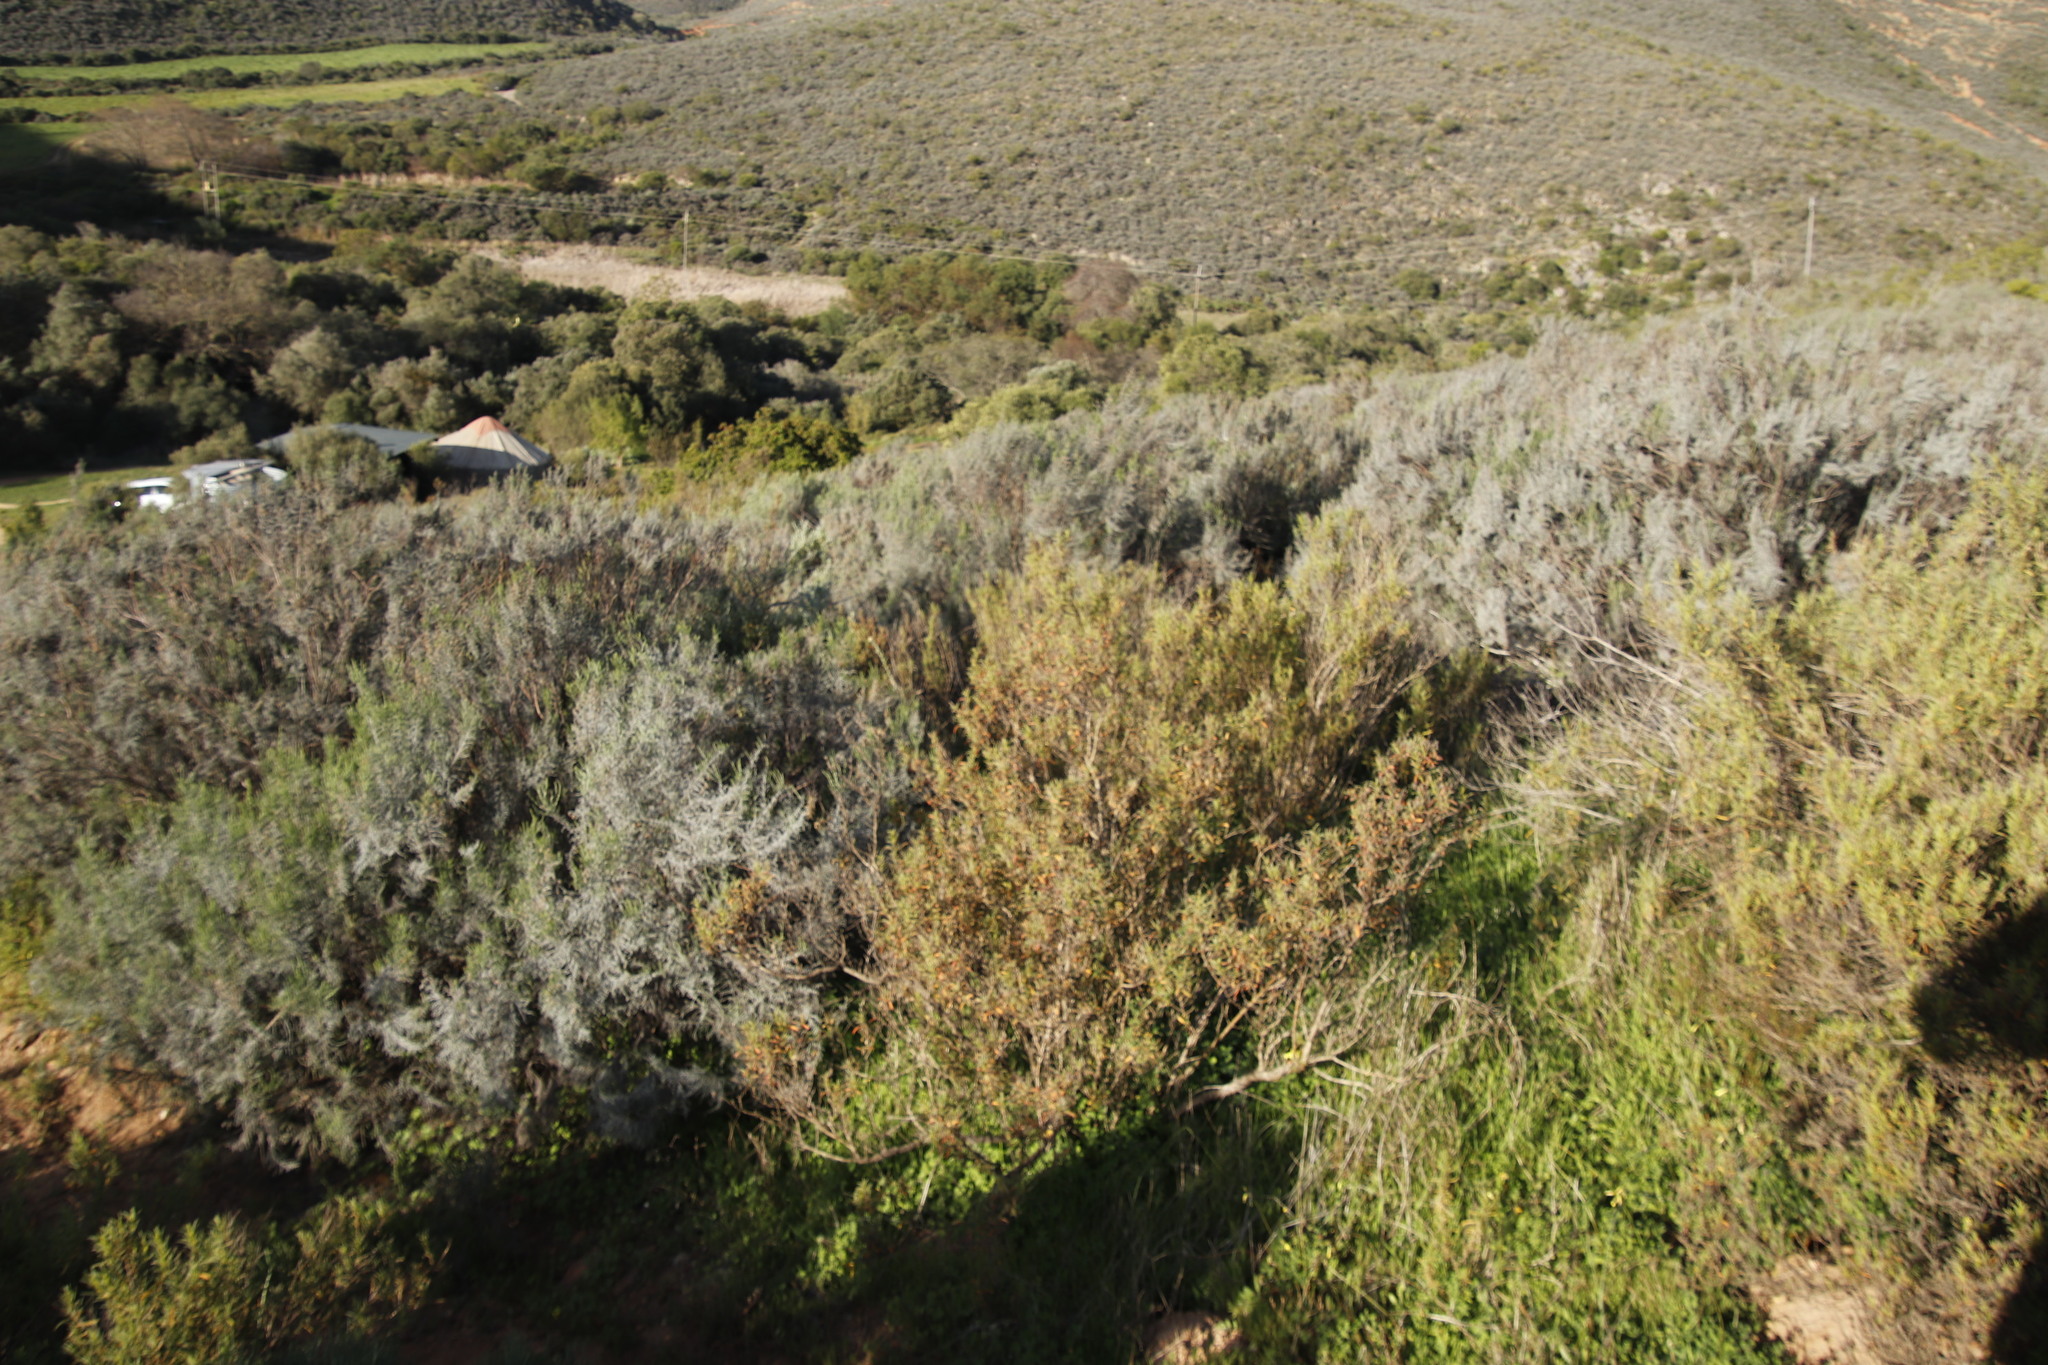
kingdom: Plantae
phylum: Tracheophyta
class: Magnoliopsida
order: Caryophyllales
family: Aizoaceae
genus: Aizoon
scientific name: Aizoon africanum
